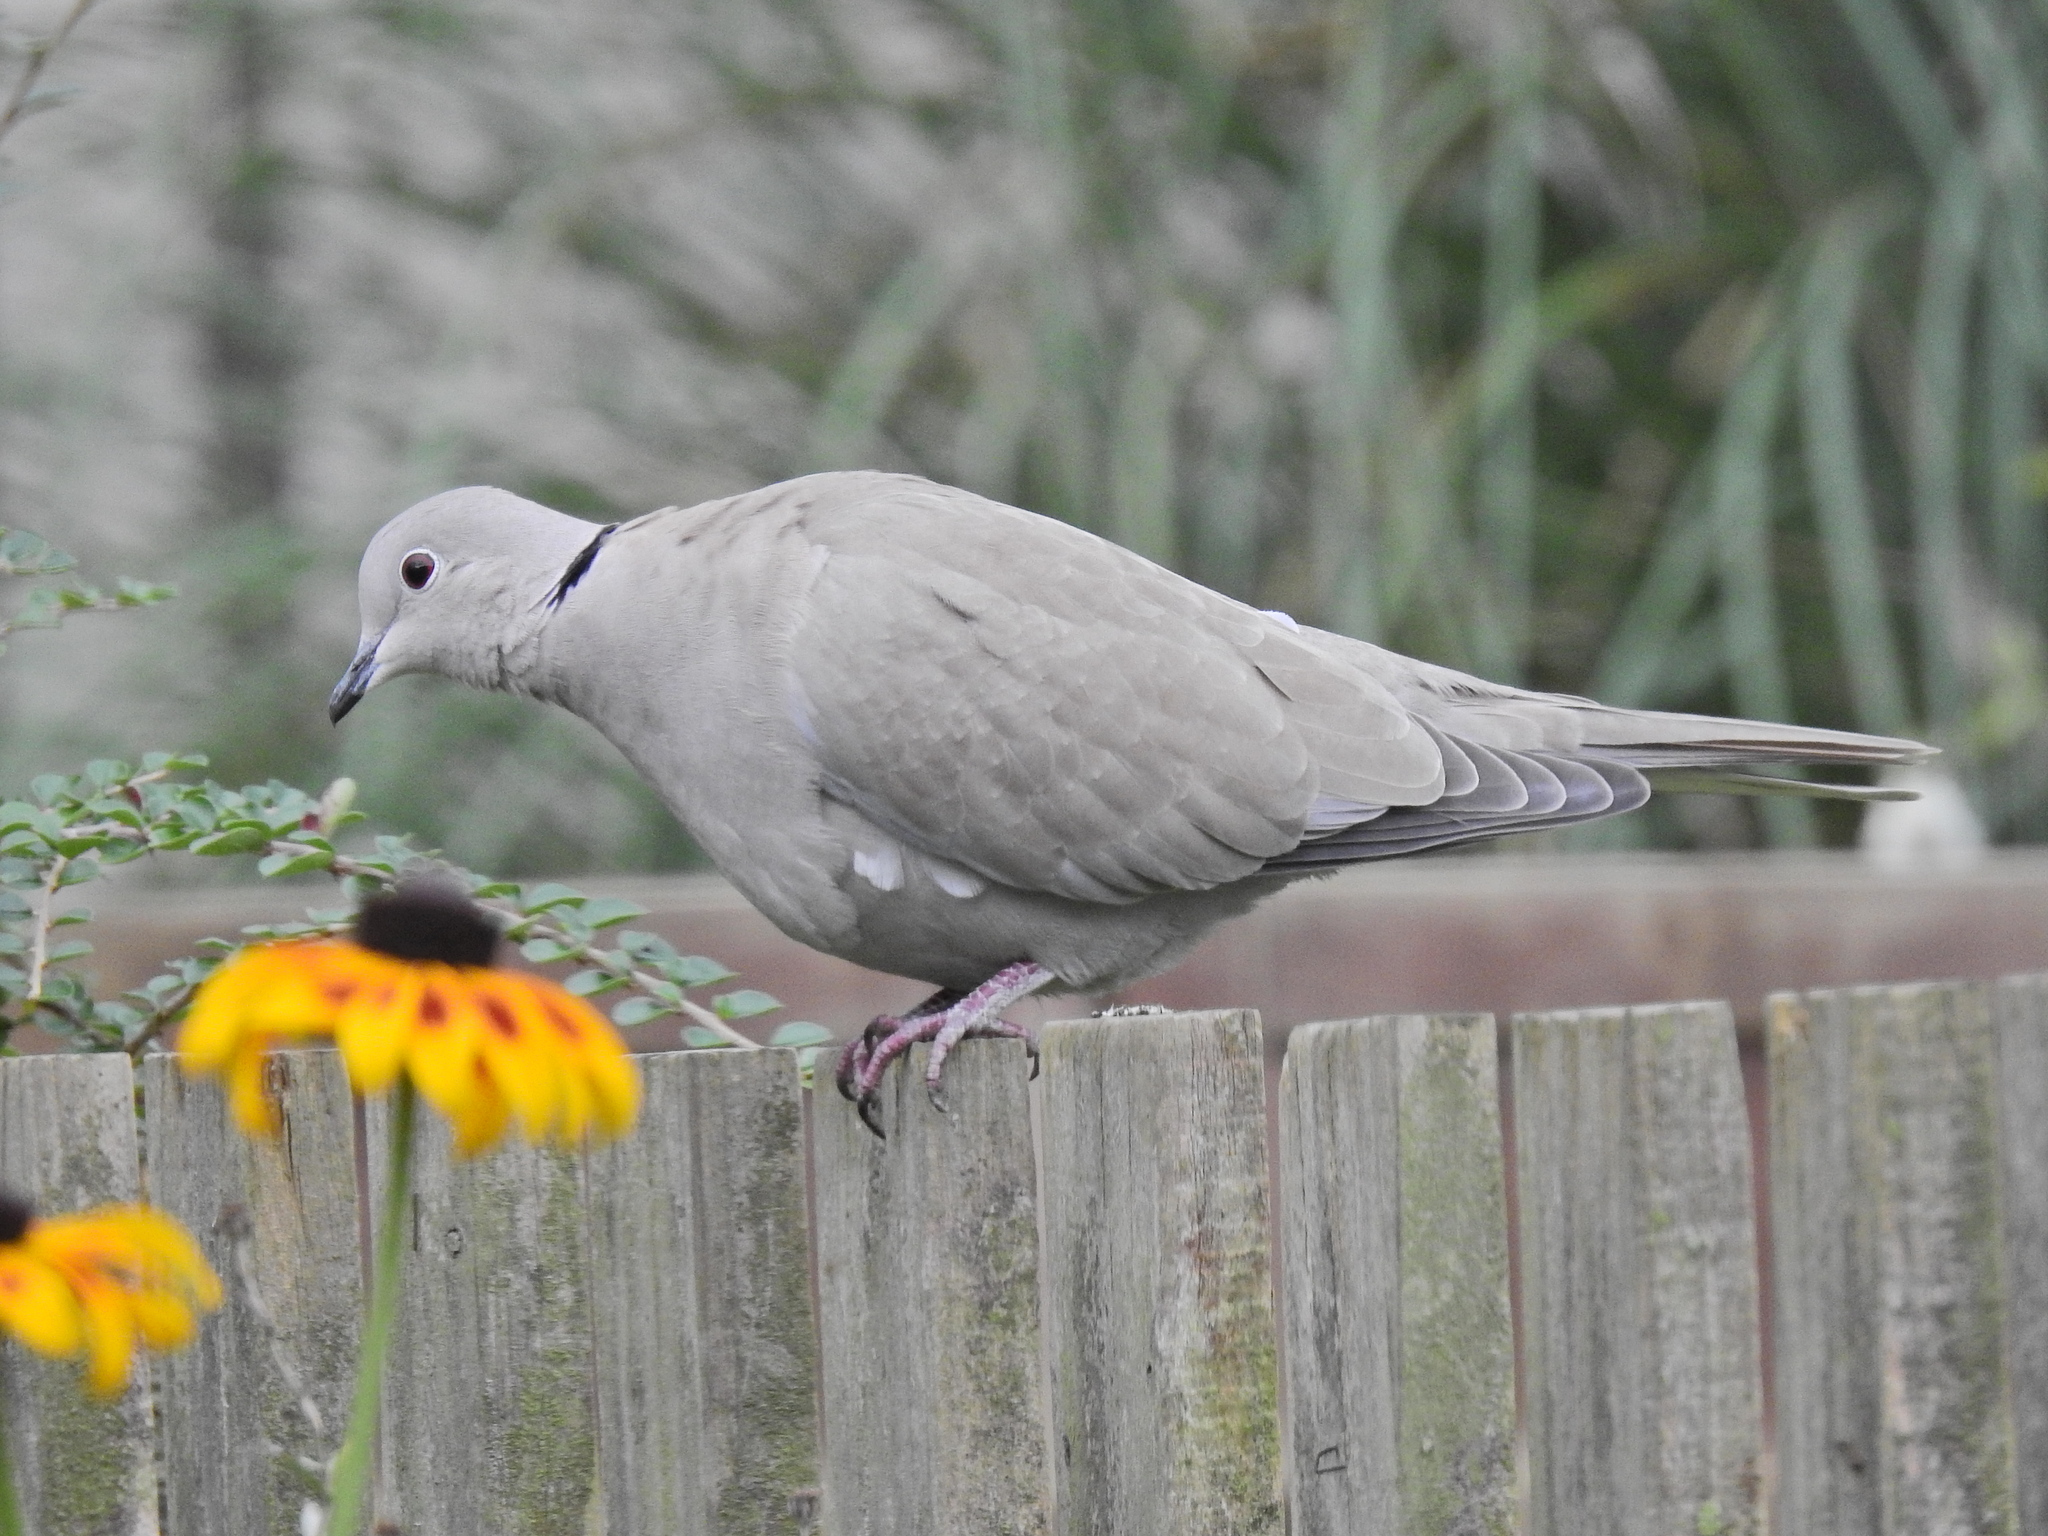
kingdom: Animalia
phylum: Chordata
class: Aves
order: Columbiformes
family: Columbidae
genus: Streptopelia
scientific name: Streptopelia decaocto
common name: Eurasian collared dove
